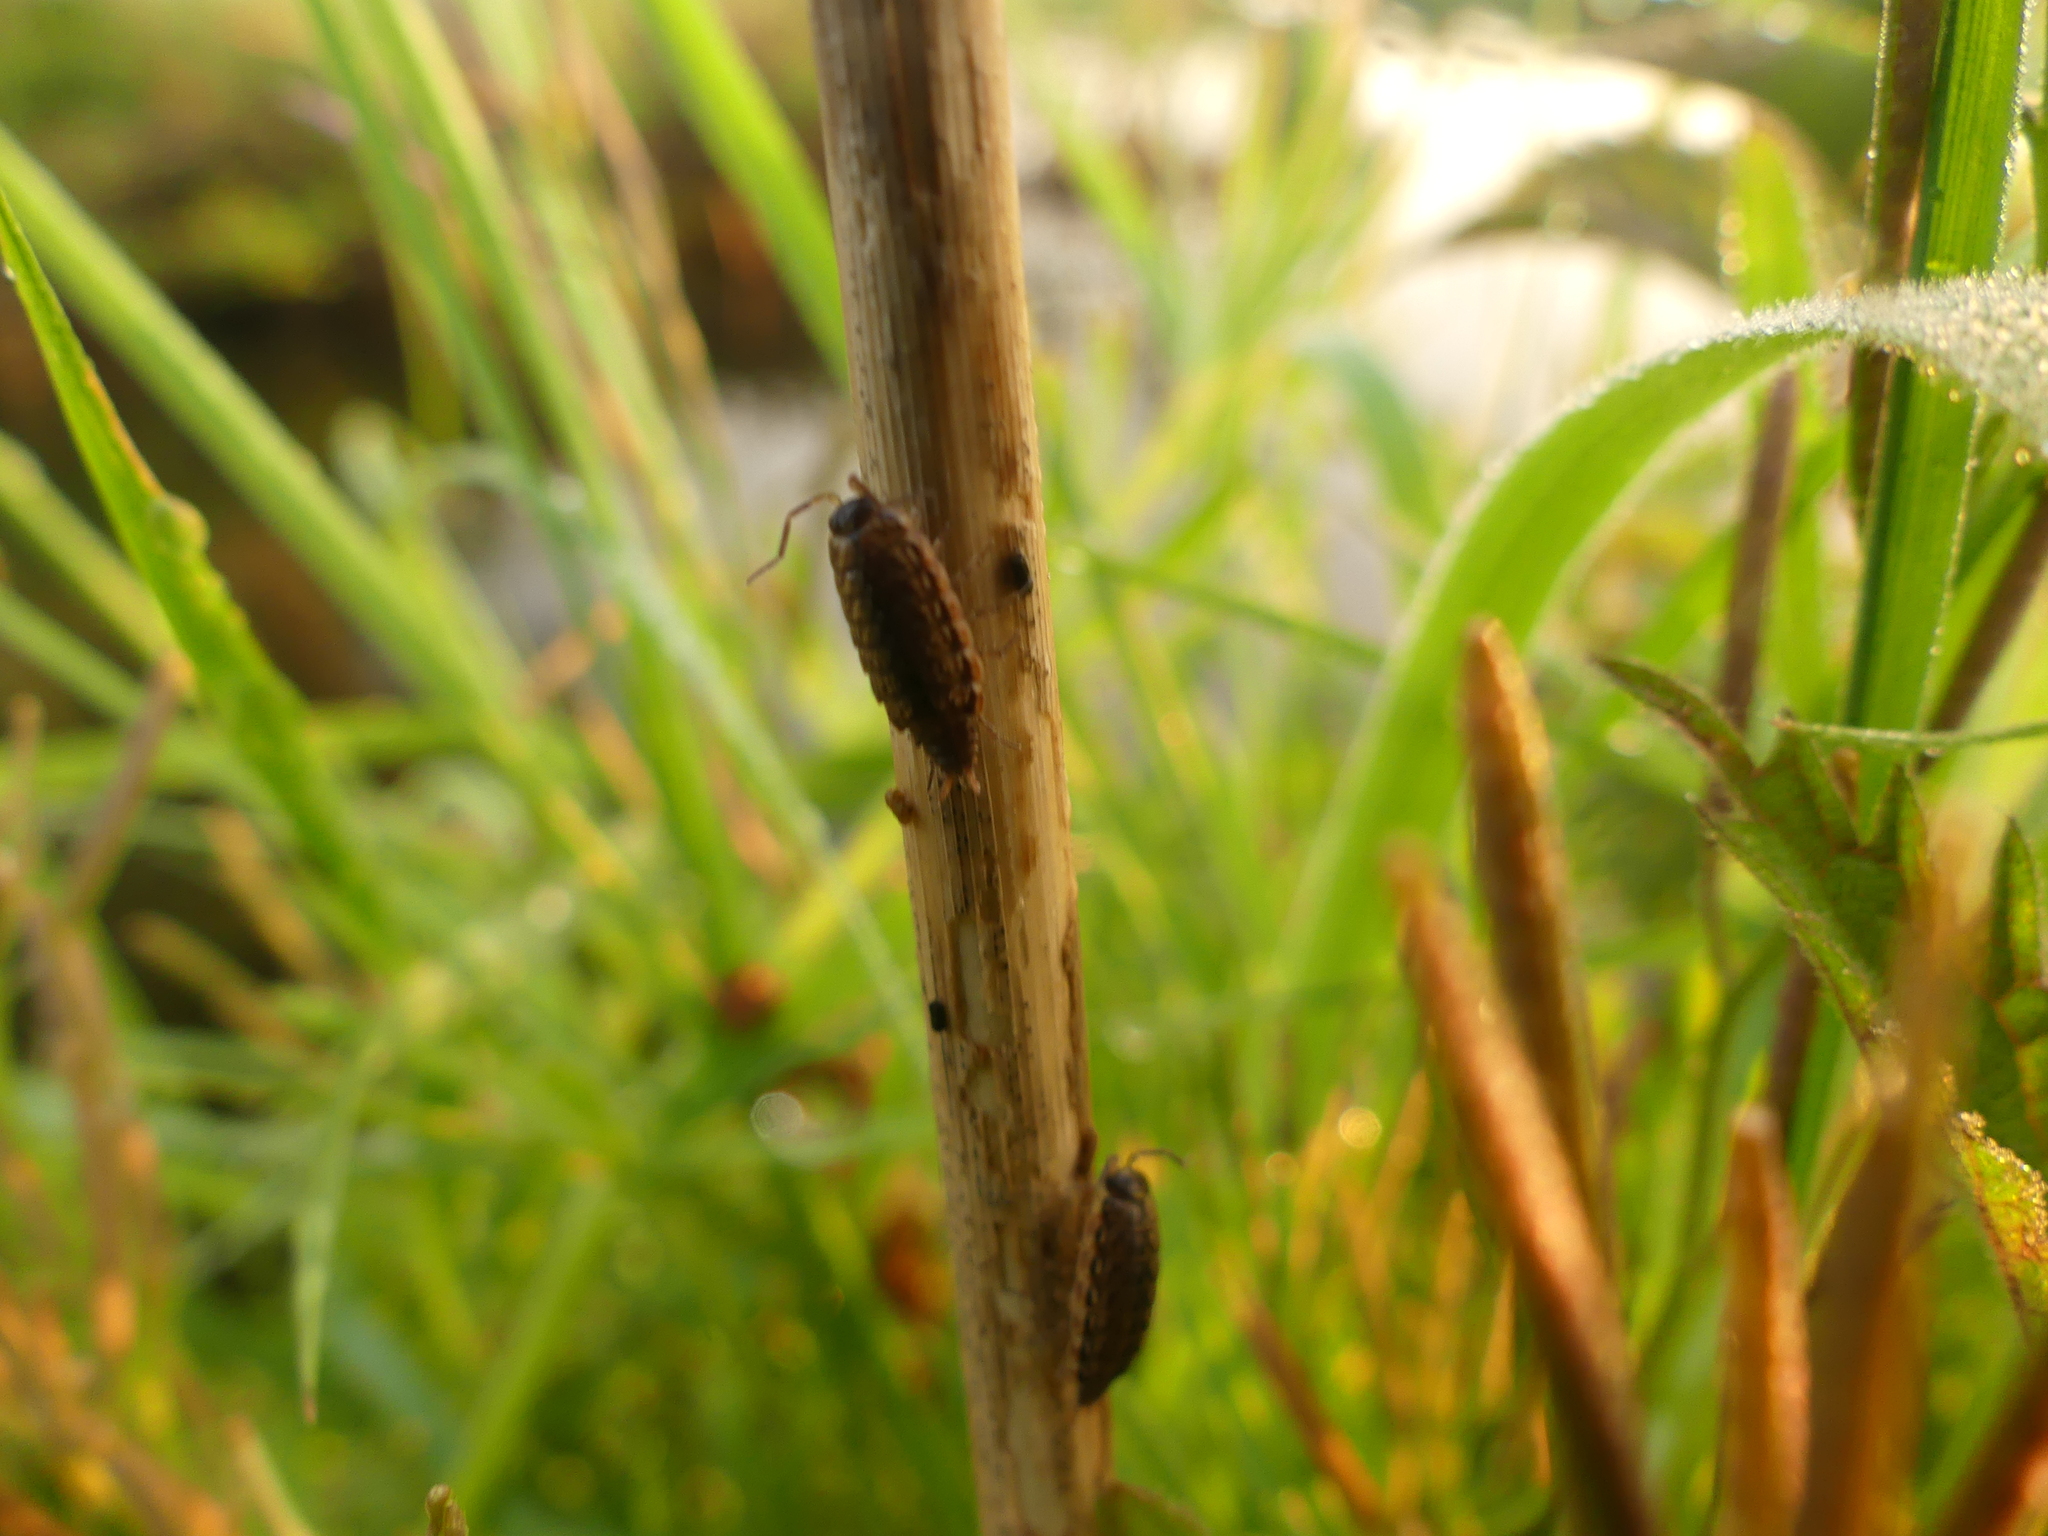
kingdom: Animalia
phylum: Arthropoda
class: Malacostraca
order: Isopoda
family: Philosciidae
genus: Philoscia
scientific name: Philoscia muscorum
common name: Common striped woodlouse
